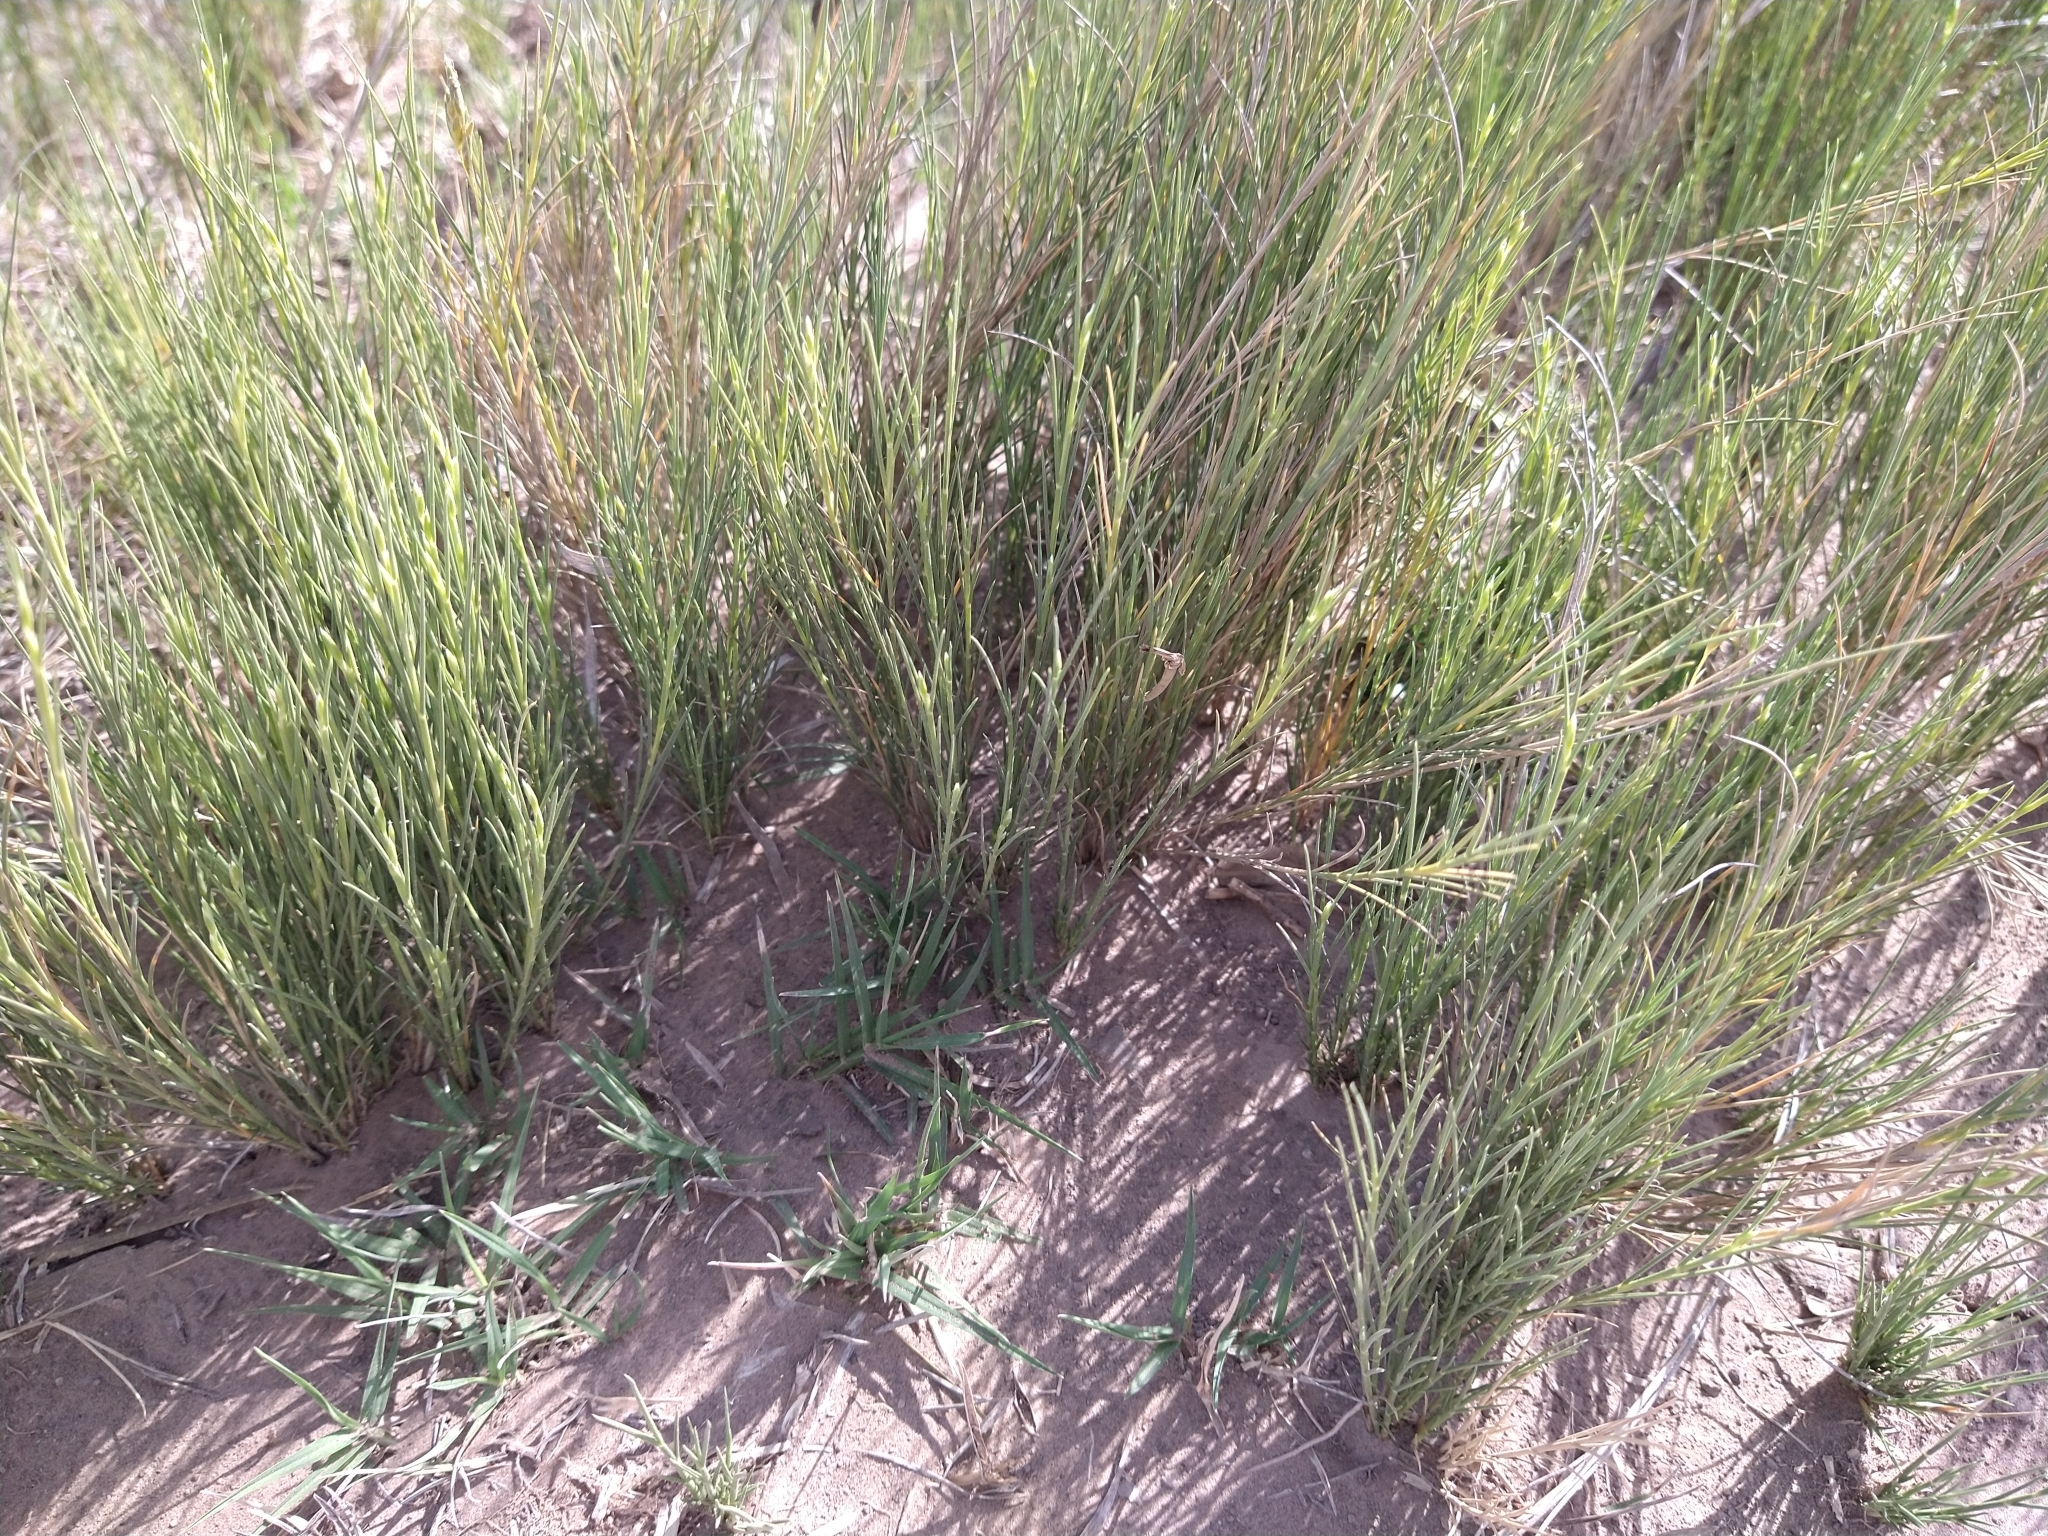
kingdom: Plantae
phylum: Tracheophyta
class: Liliopsida
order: Poales
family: Poaceae
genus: Distichlis
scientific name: Distichlis spicata
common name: Saltgrass
